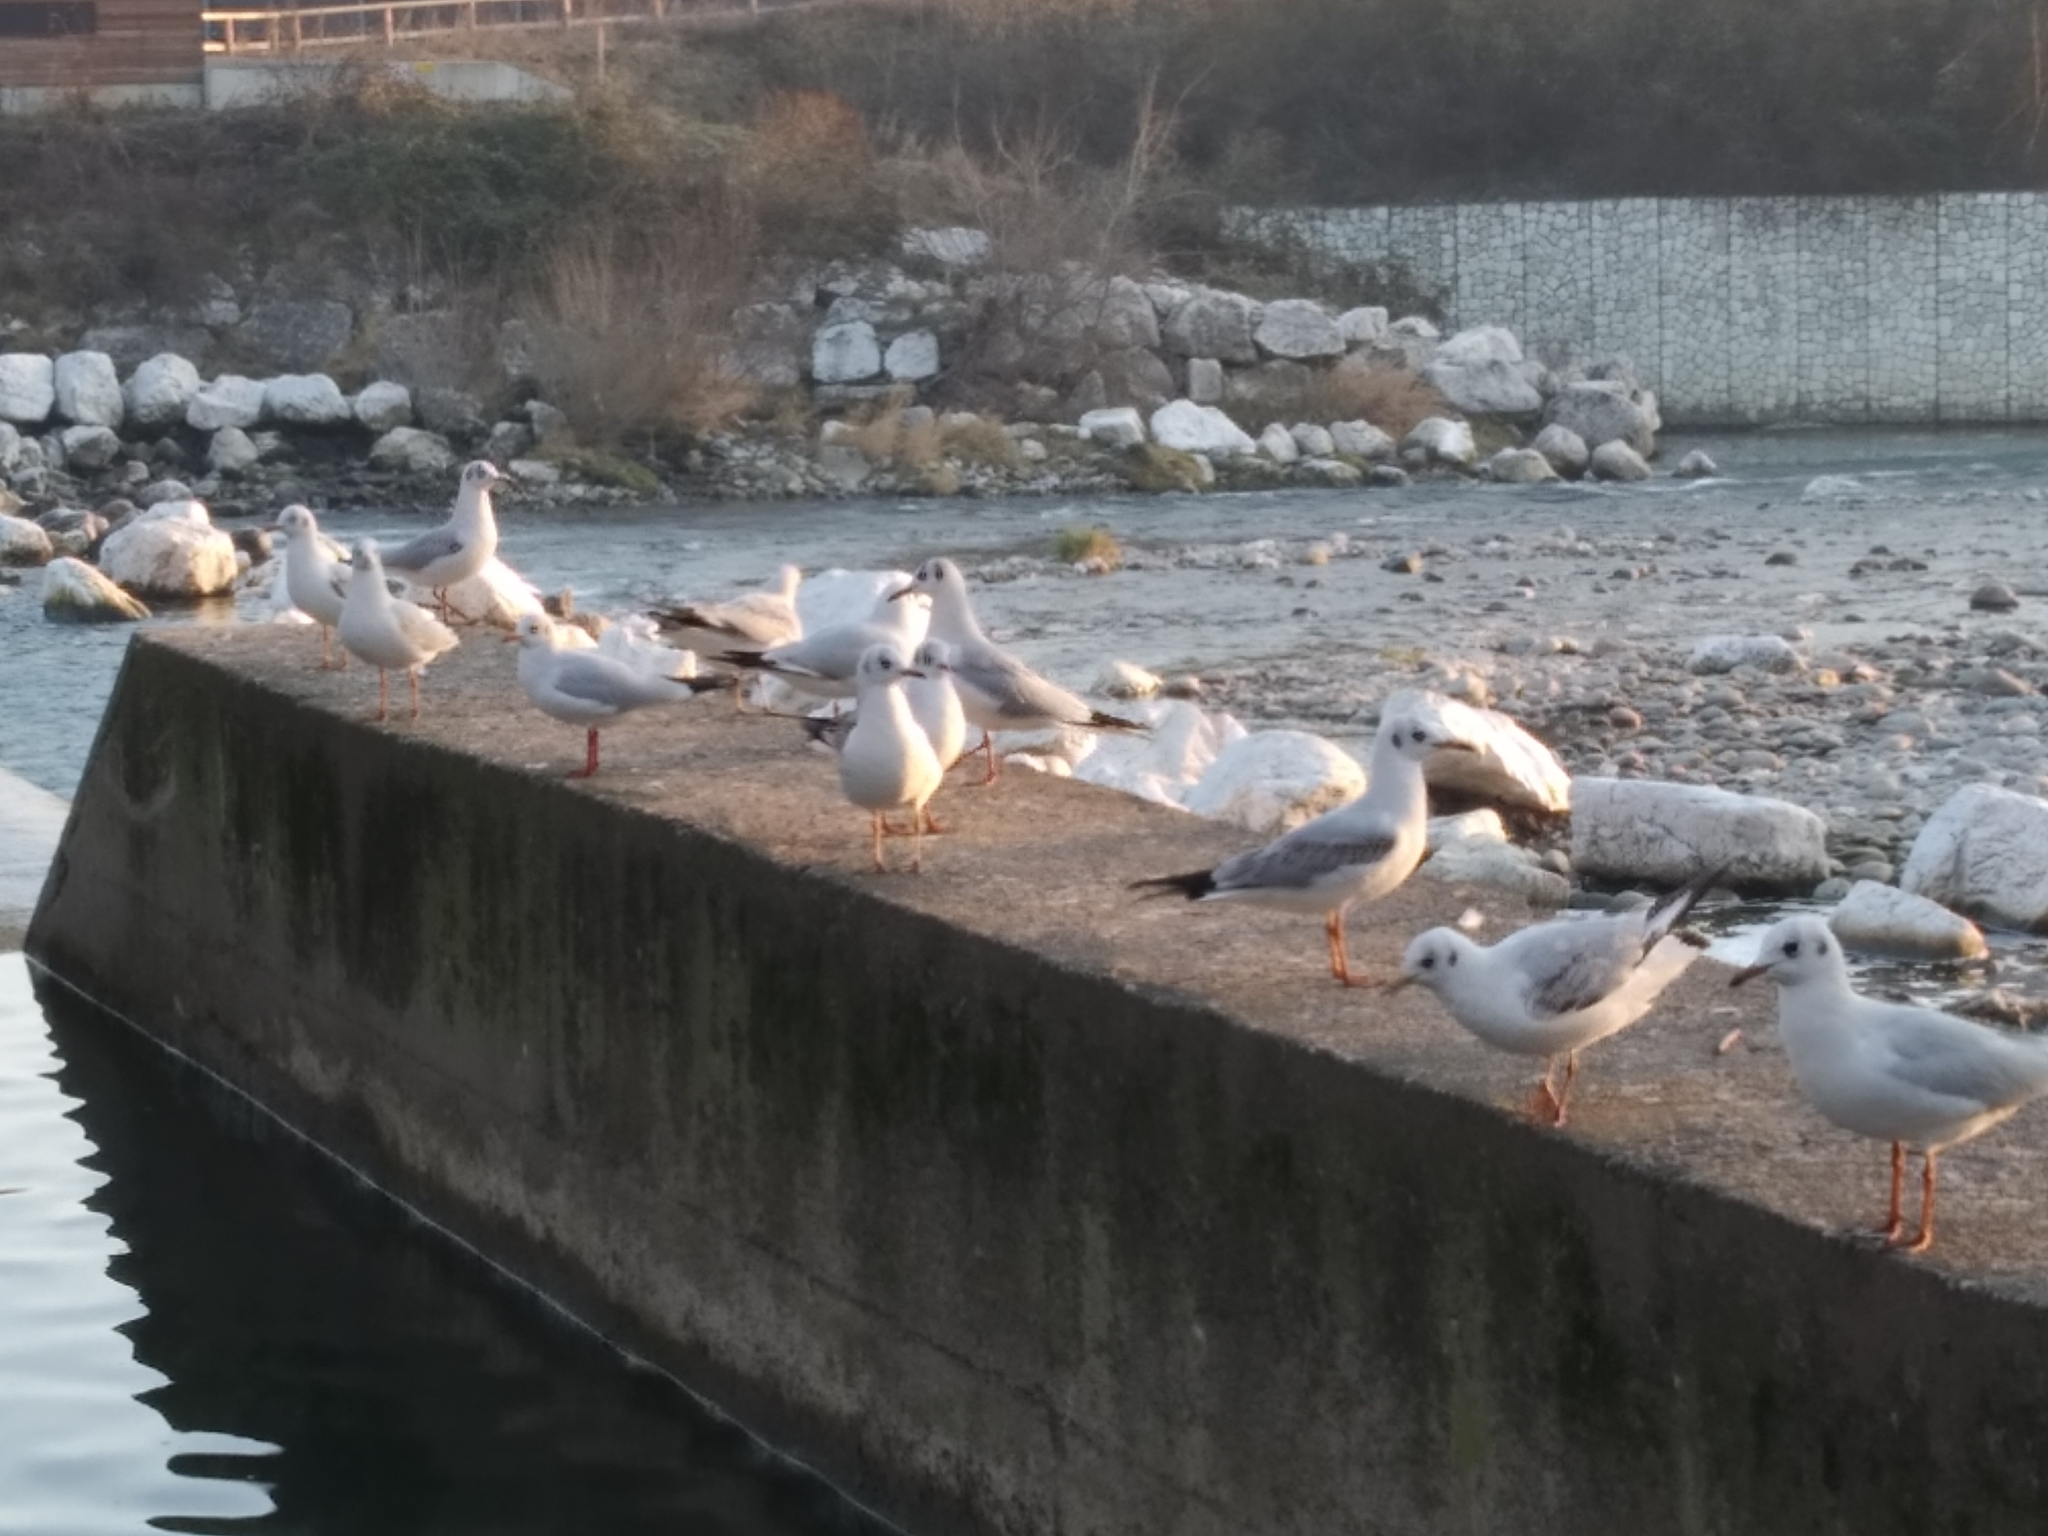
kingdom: Animalia
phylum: Chordata
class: Aves
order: Charadriiformes
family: Laridae
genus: Chroicocephalus
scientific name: Chroicocephalus ridibundus
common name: Black-headed gull
